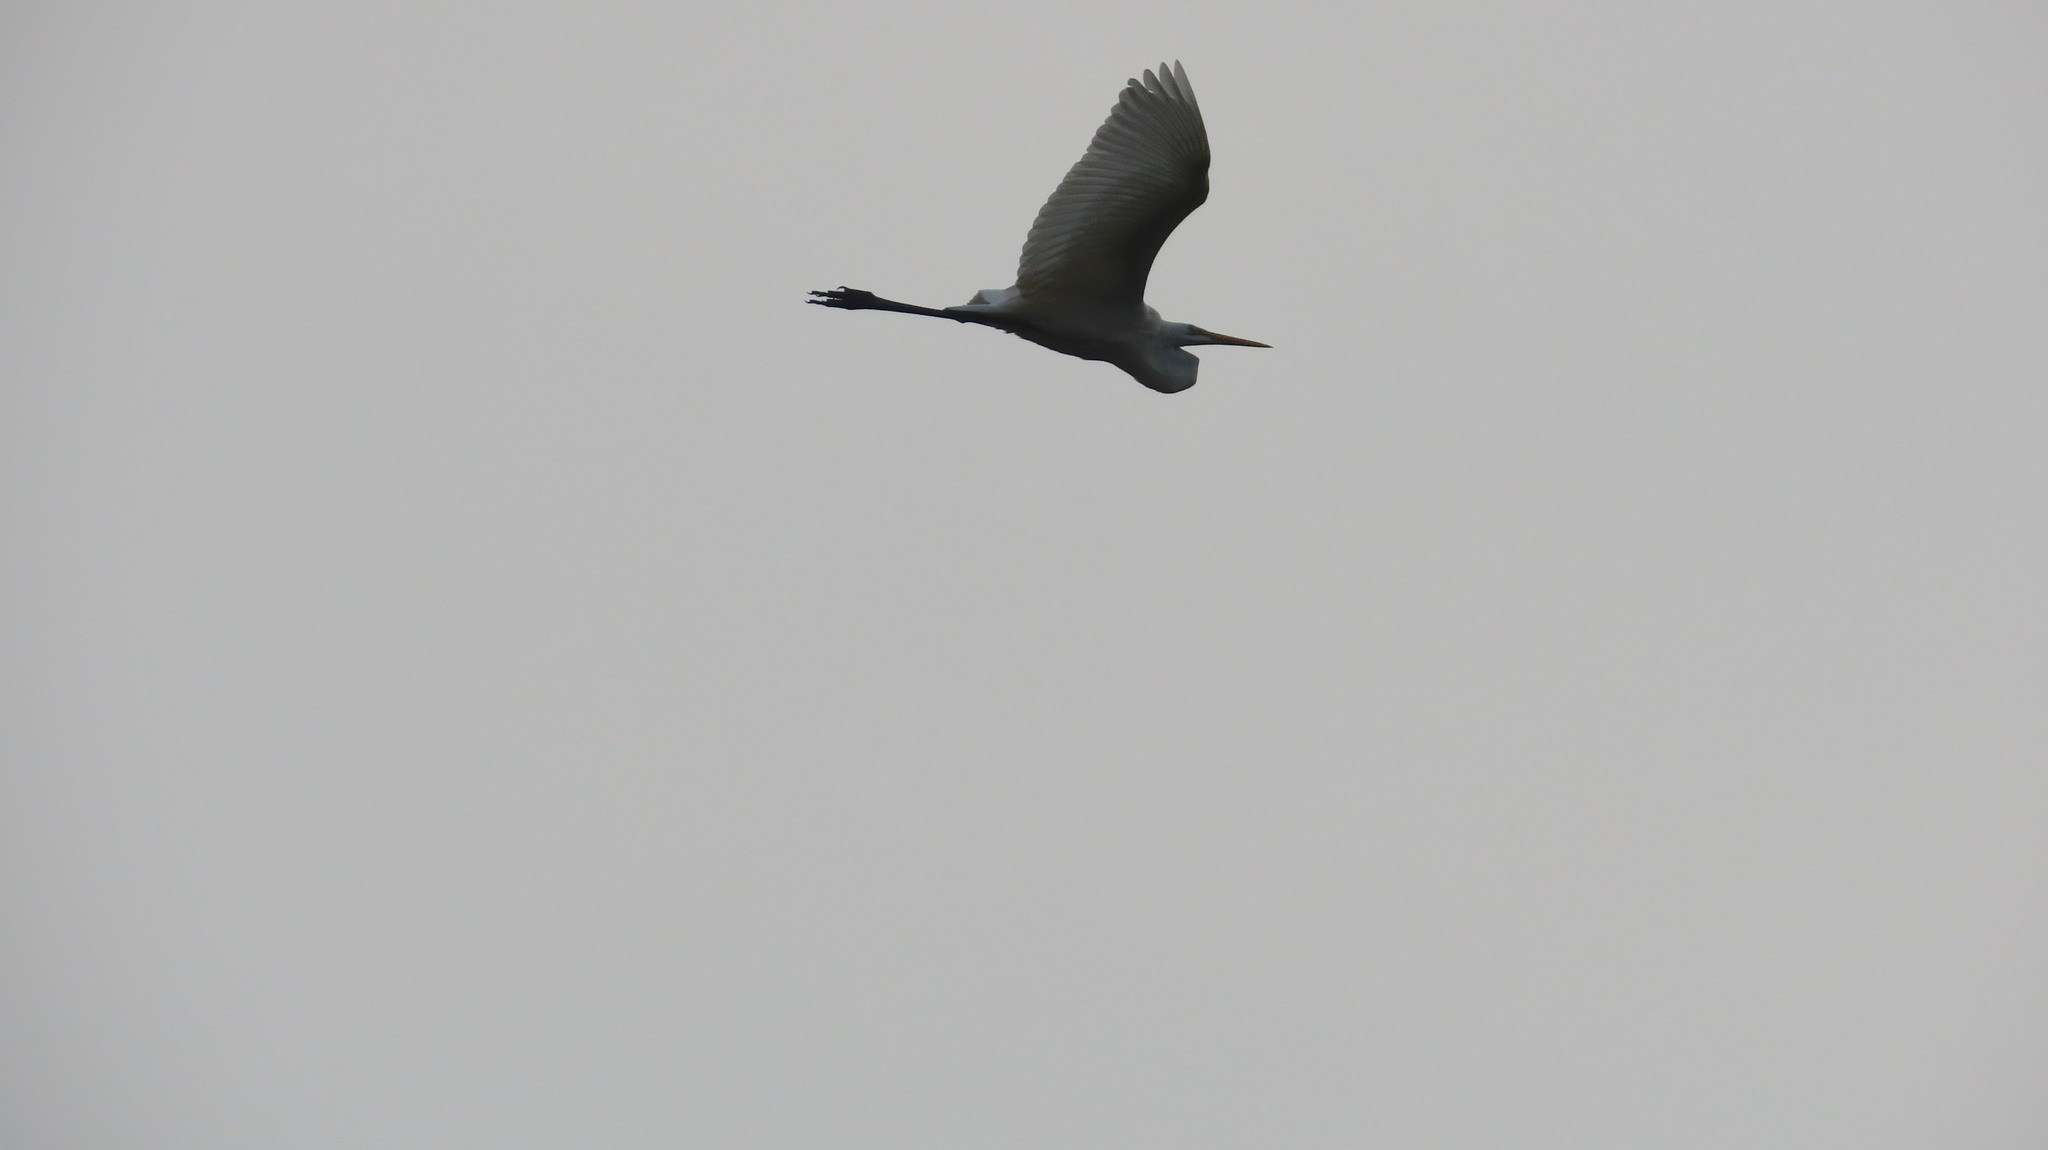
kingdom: Animalia
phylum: Chordata
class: Aves
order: Pelecaniformes
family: Ardeidae
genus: Ardea
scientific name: Ardea alba
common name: Great egret
